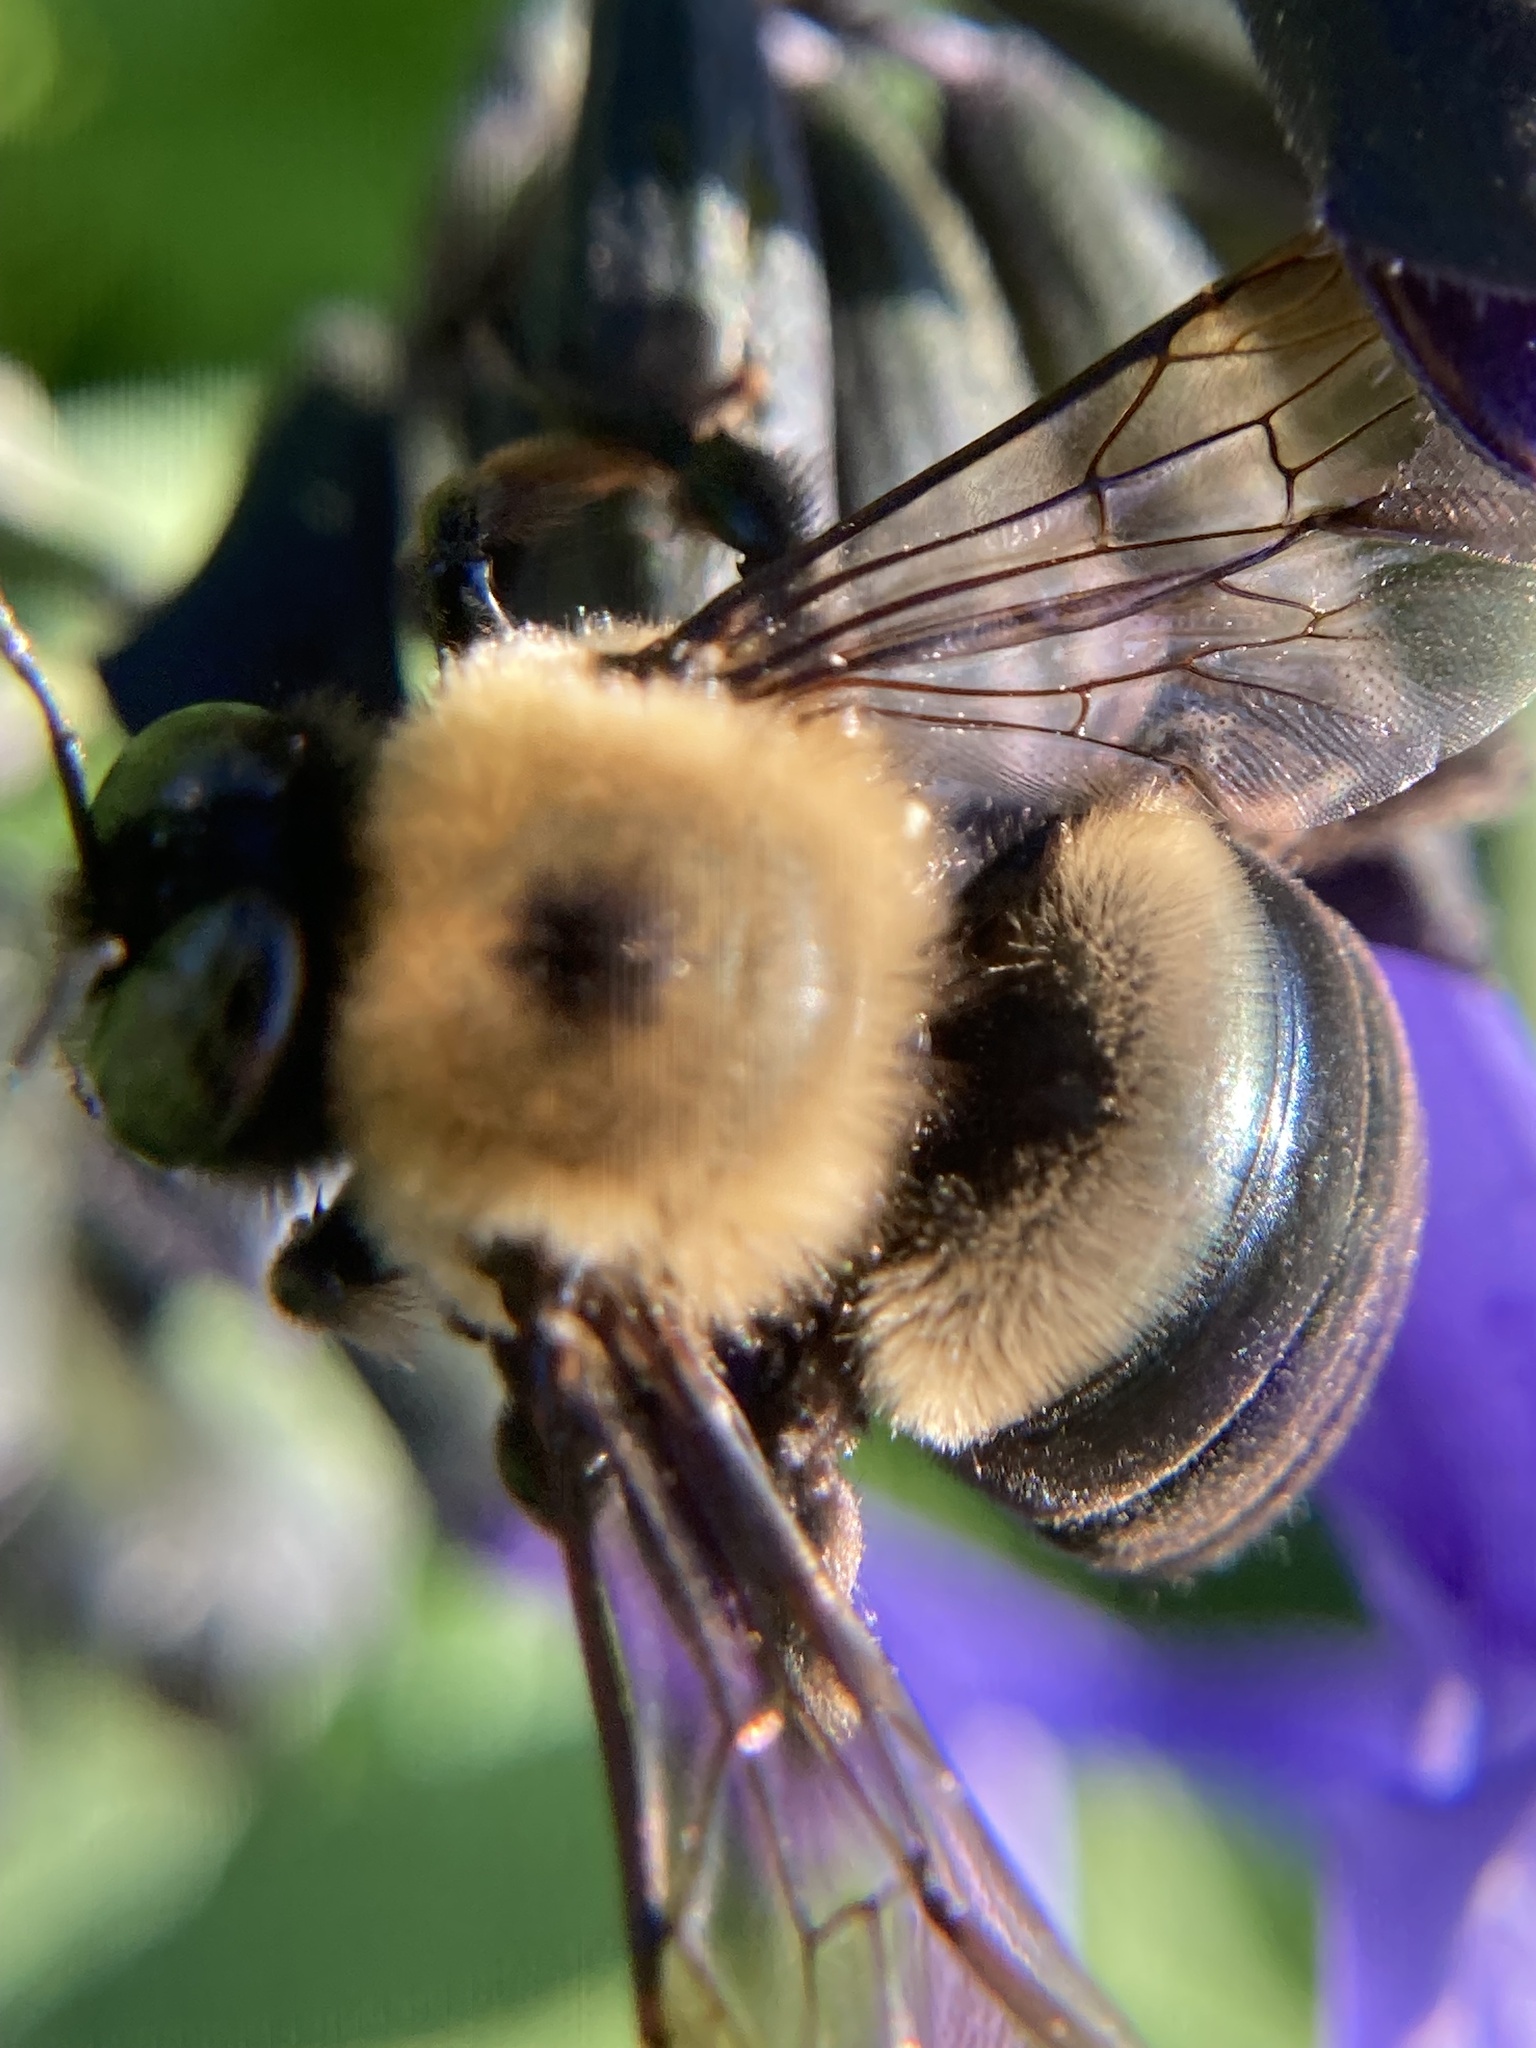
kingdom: Animalia
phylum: Arthropoda
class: Insecta
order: Hymenoptera
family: Apidae
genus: Xylocopa
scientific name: Xylocopa virginica
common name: Carpenter bee
